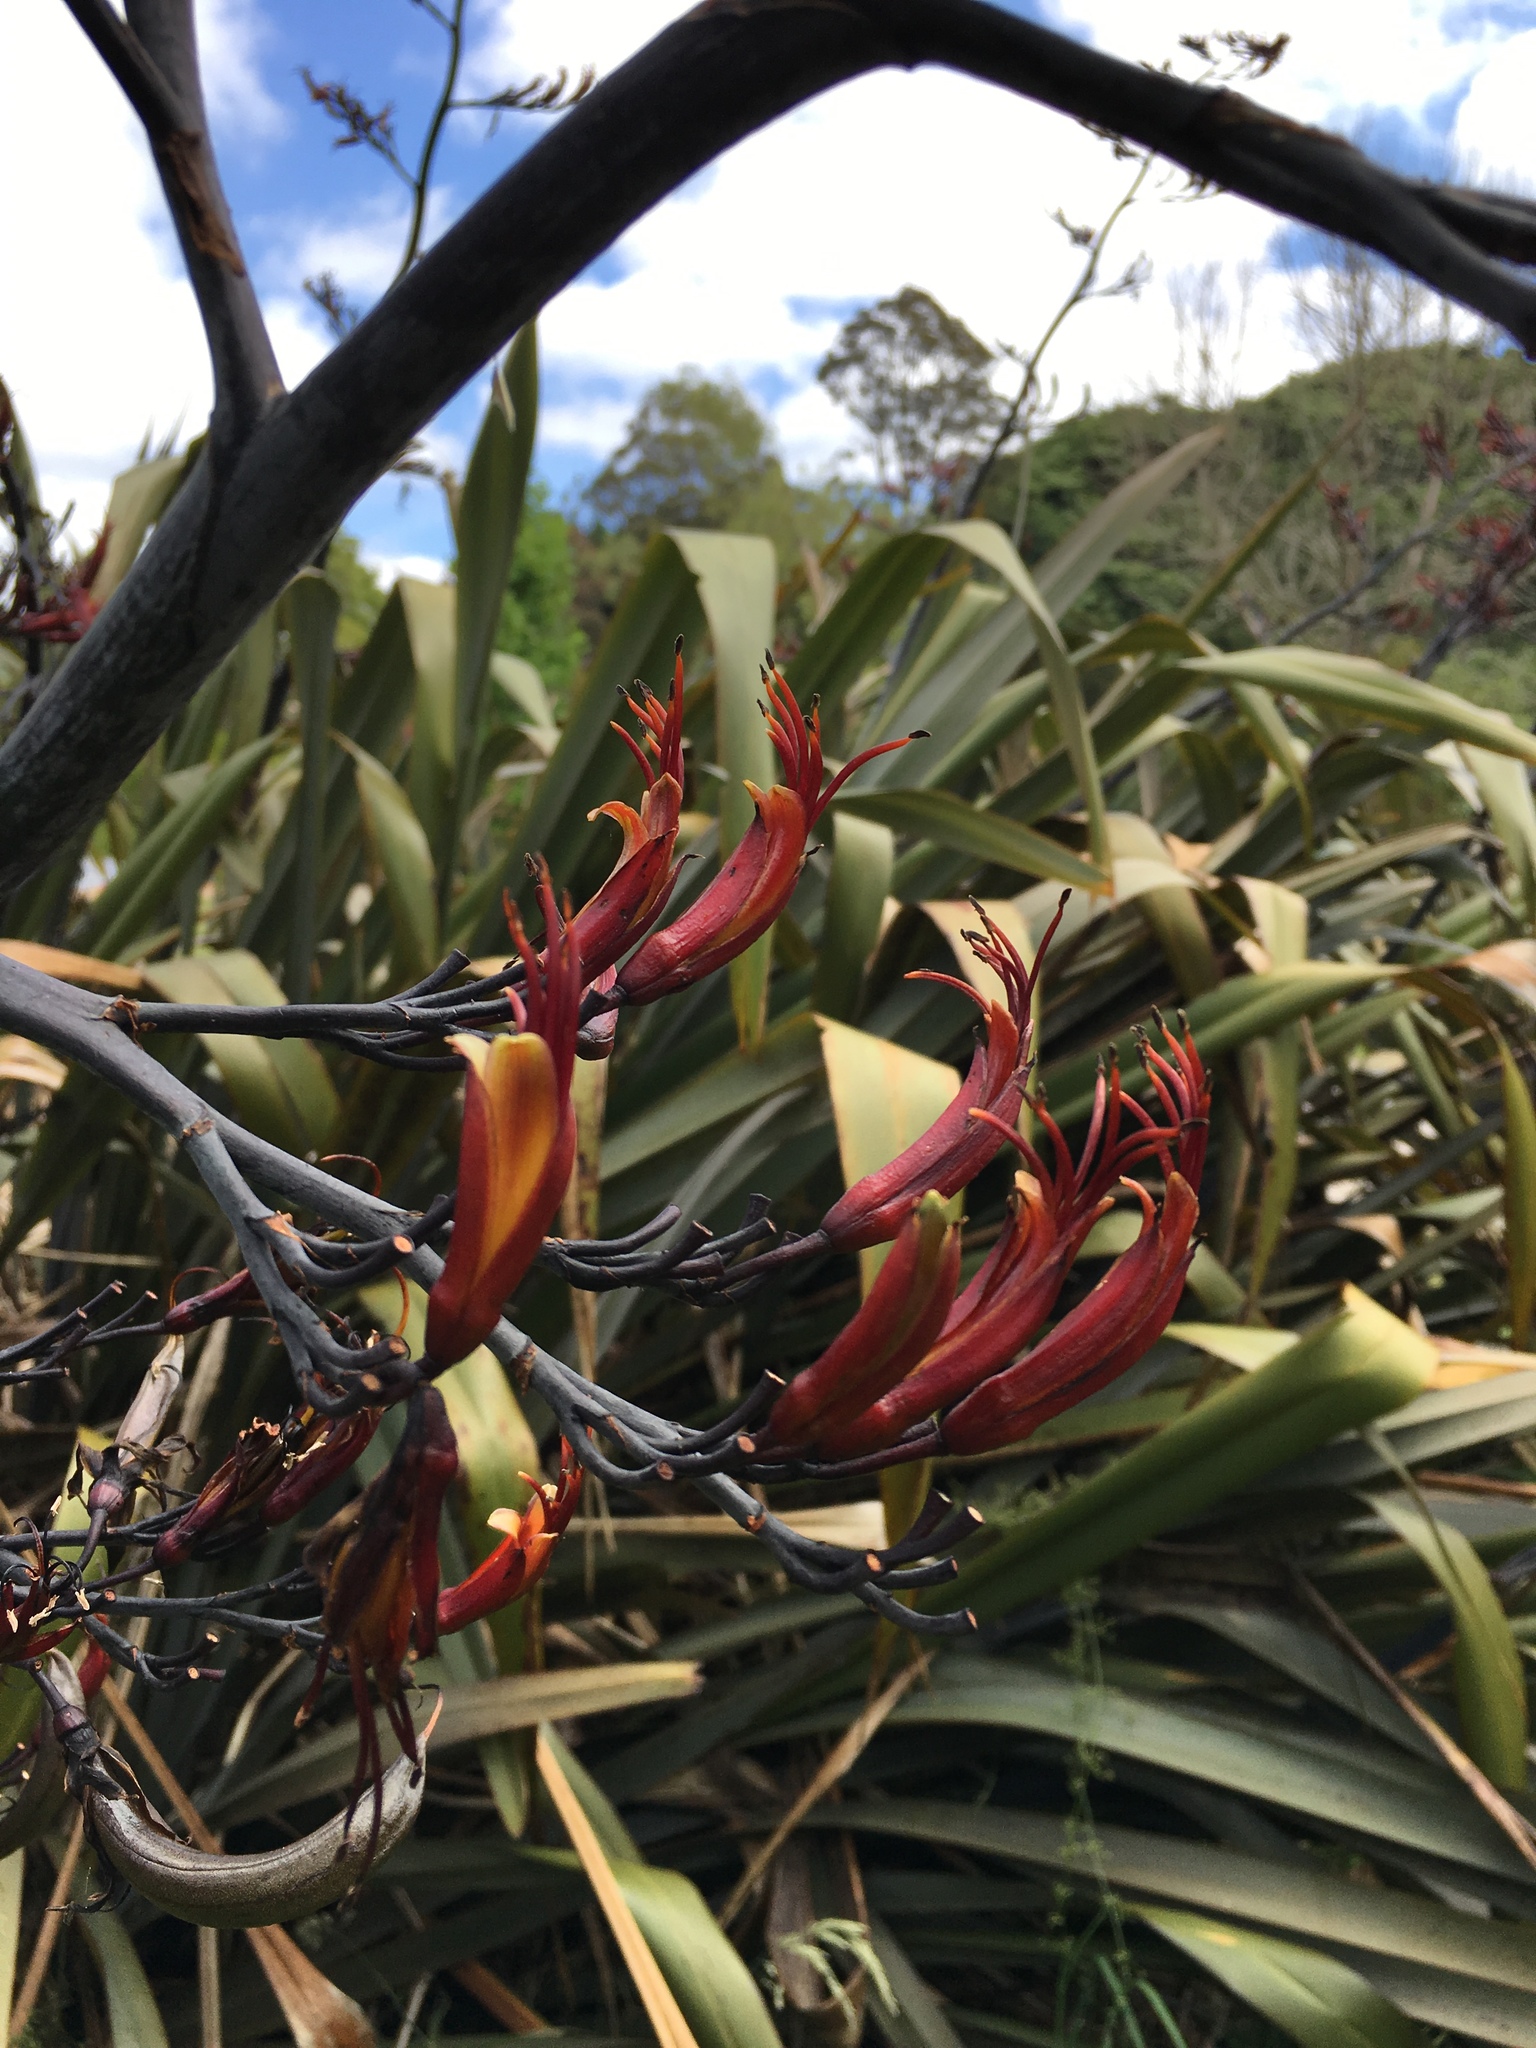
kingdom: Plantae
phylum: Tracheophyta
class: Liliopsida
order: Asparagales
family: Asphodelaceae
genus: Phormium
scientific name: Phormium tenax
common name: New zealand flax
